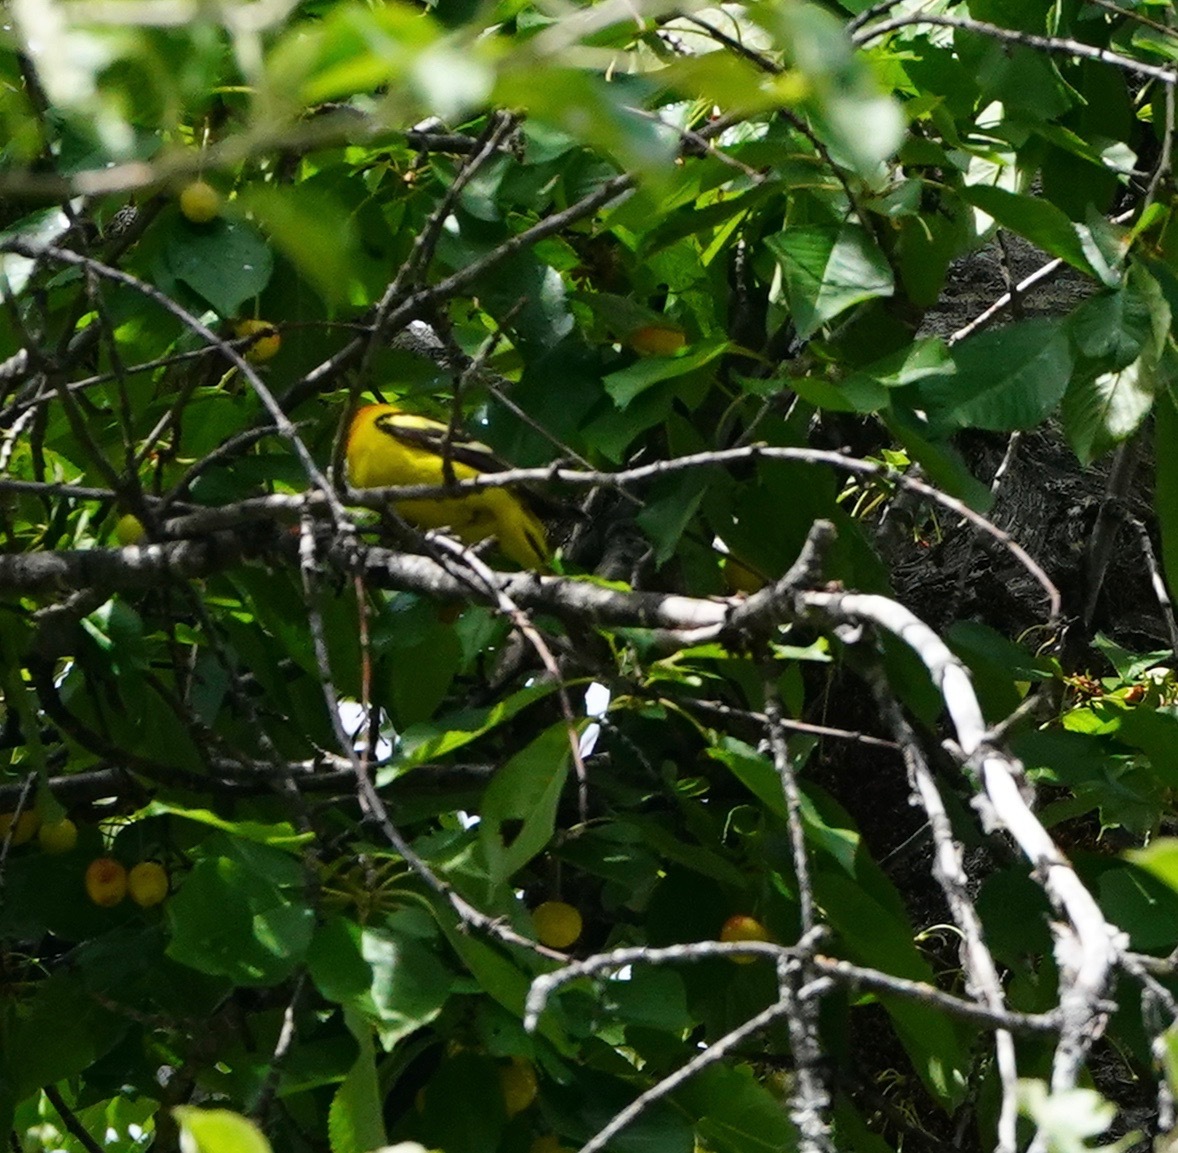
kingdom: Animalia
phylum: Chordata
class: Aves
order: Passeriformes
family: Cardinalidae
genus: Piranga
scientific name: Piranga ludoviciana
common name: Western tanager
